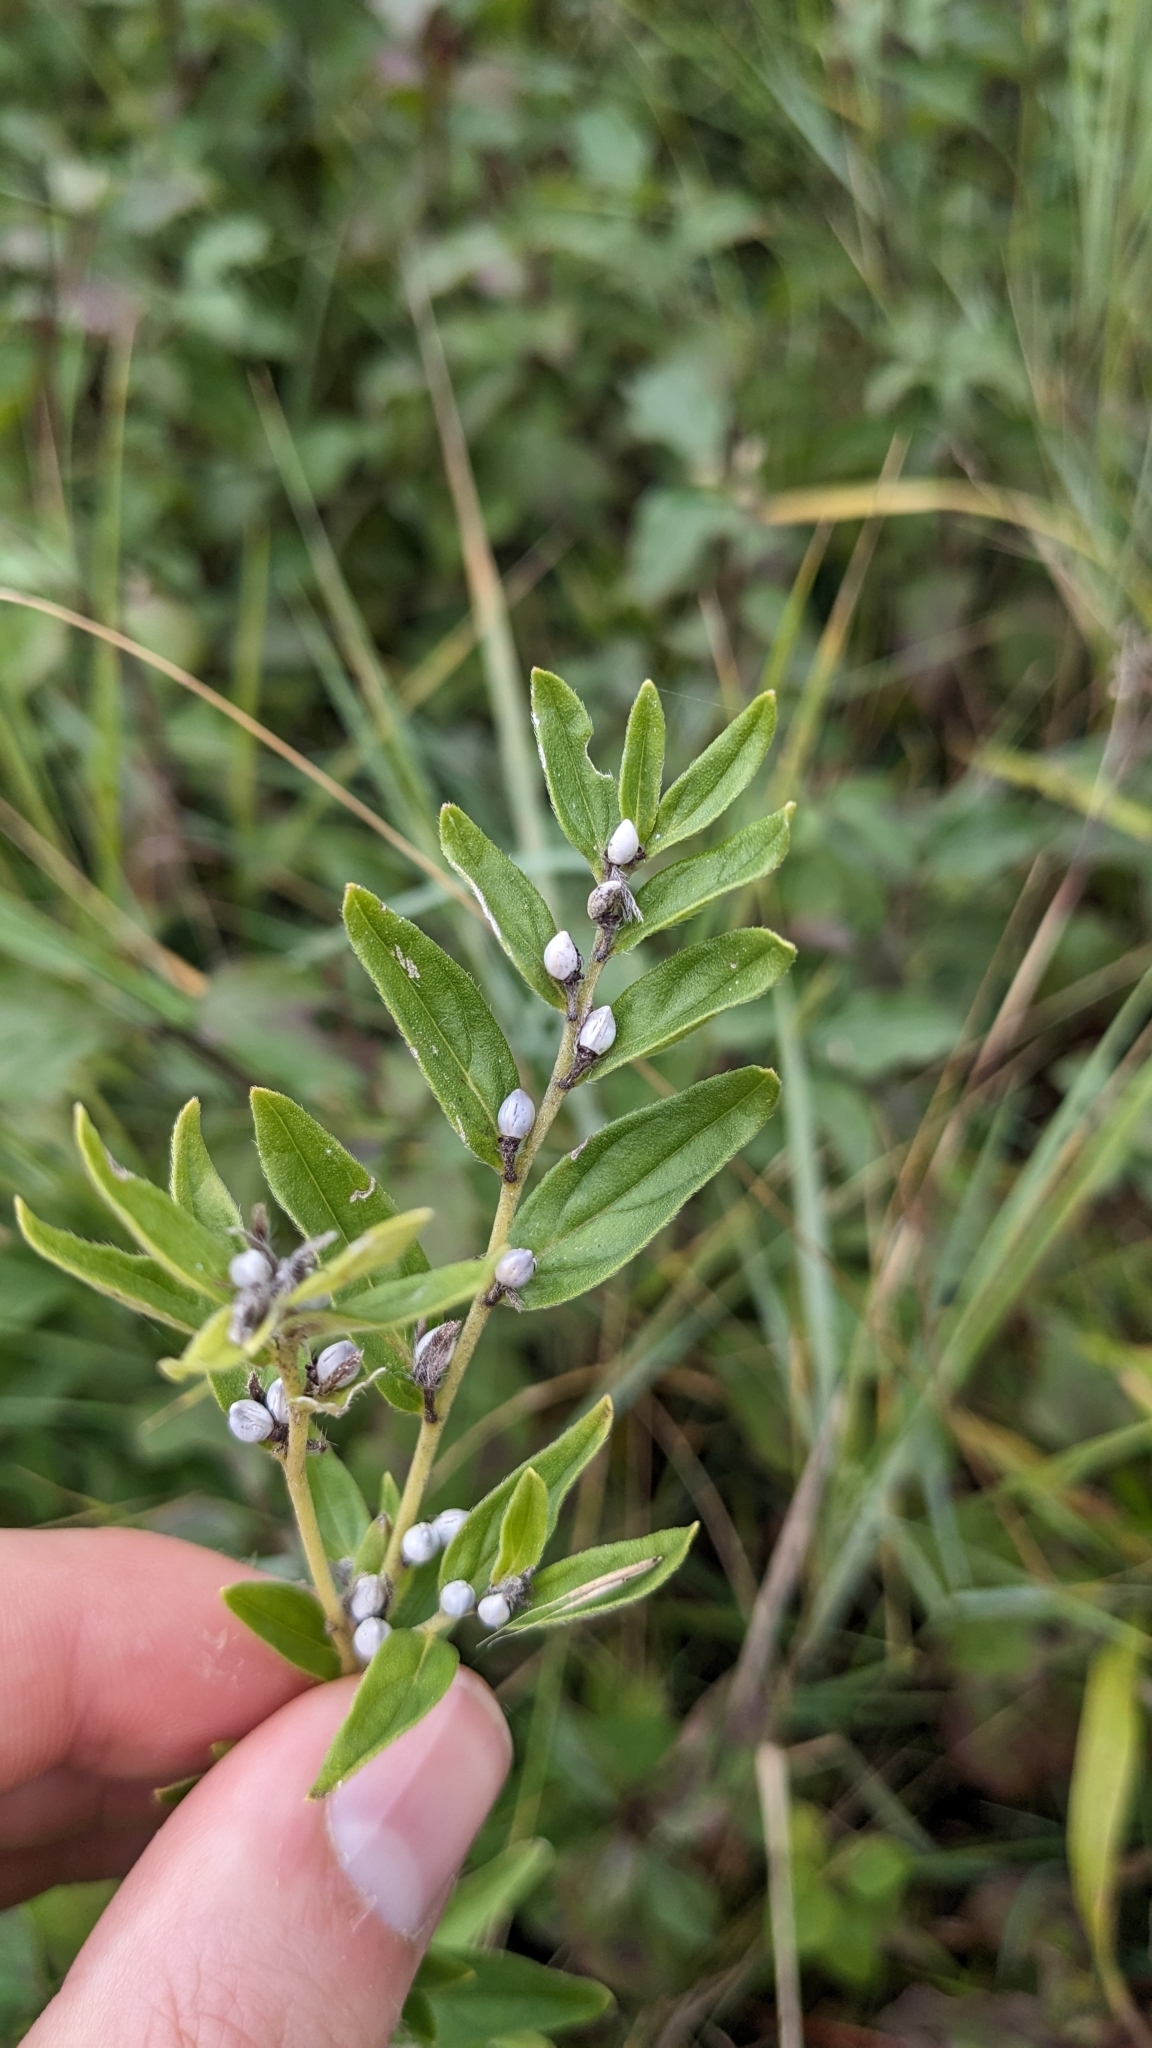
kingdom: Plantae
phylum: Tracheophyta
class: Magnoliopsida
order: Boraginales
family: Boraginaceae
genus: Lithospermum
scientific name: Lithospermum officinale
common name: Common gromwell
